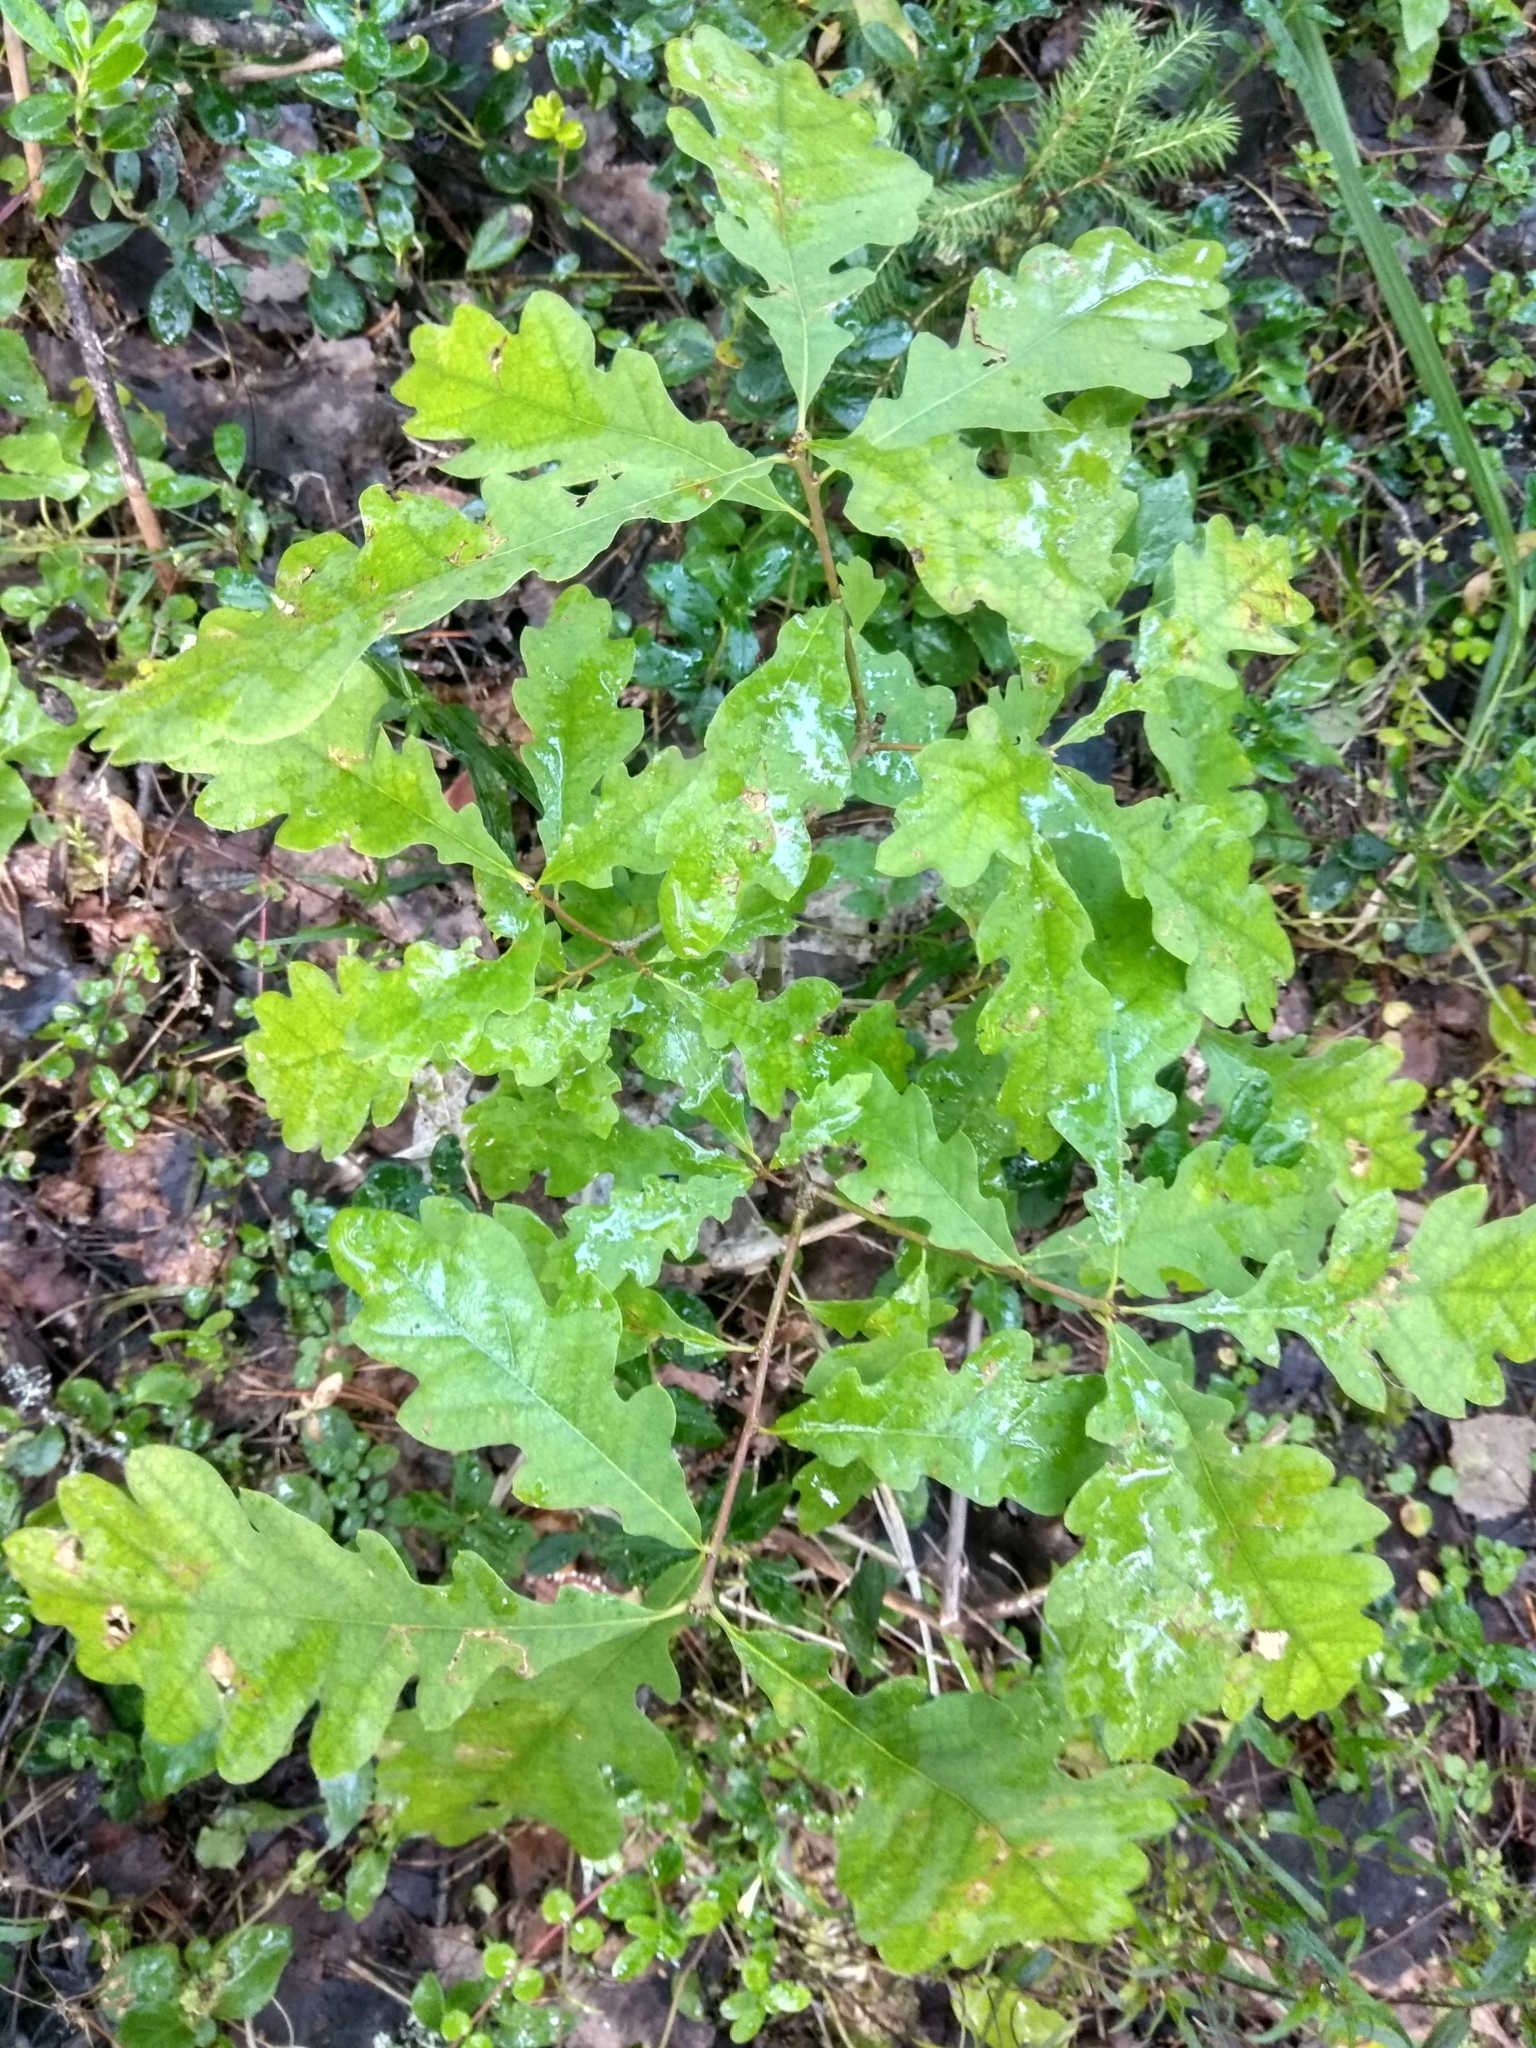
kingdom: Plantae
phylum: Tracheophyta
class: Magnoliopsida
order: Fagales
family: Fagaceae
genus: Quercus
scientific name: Quercus robur
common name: Pedunculate oak
